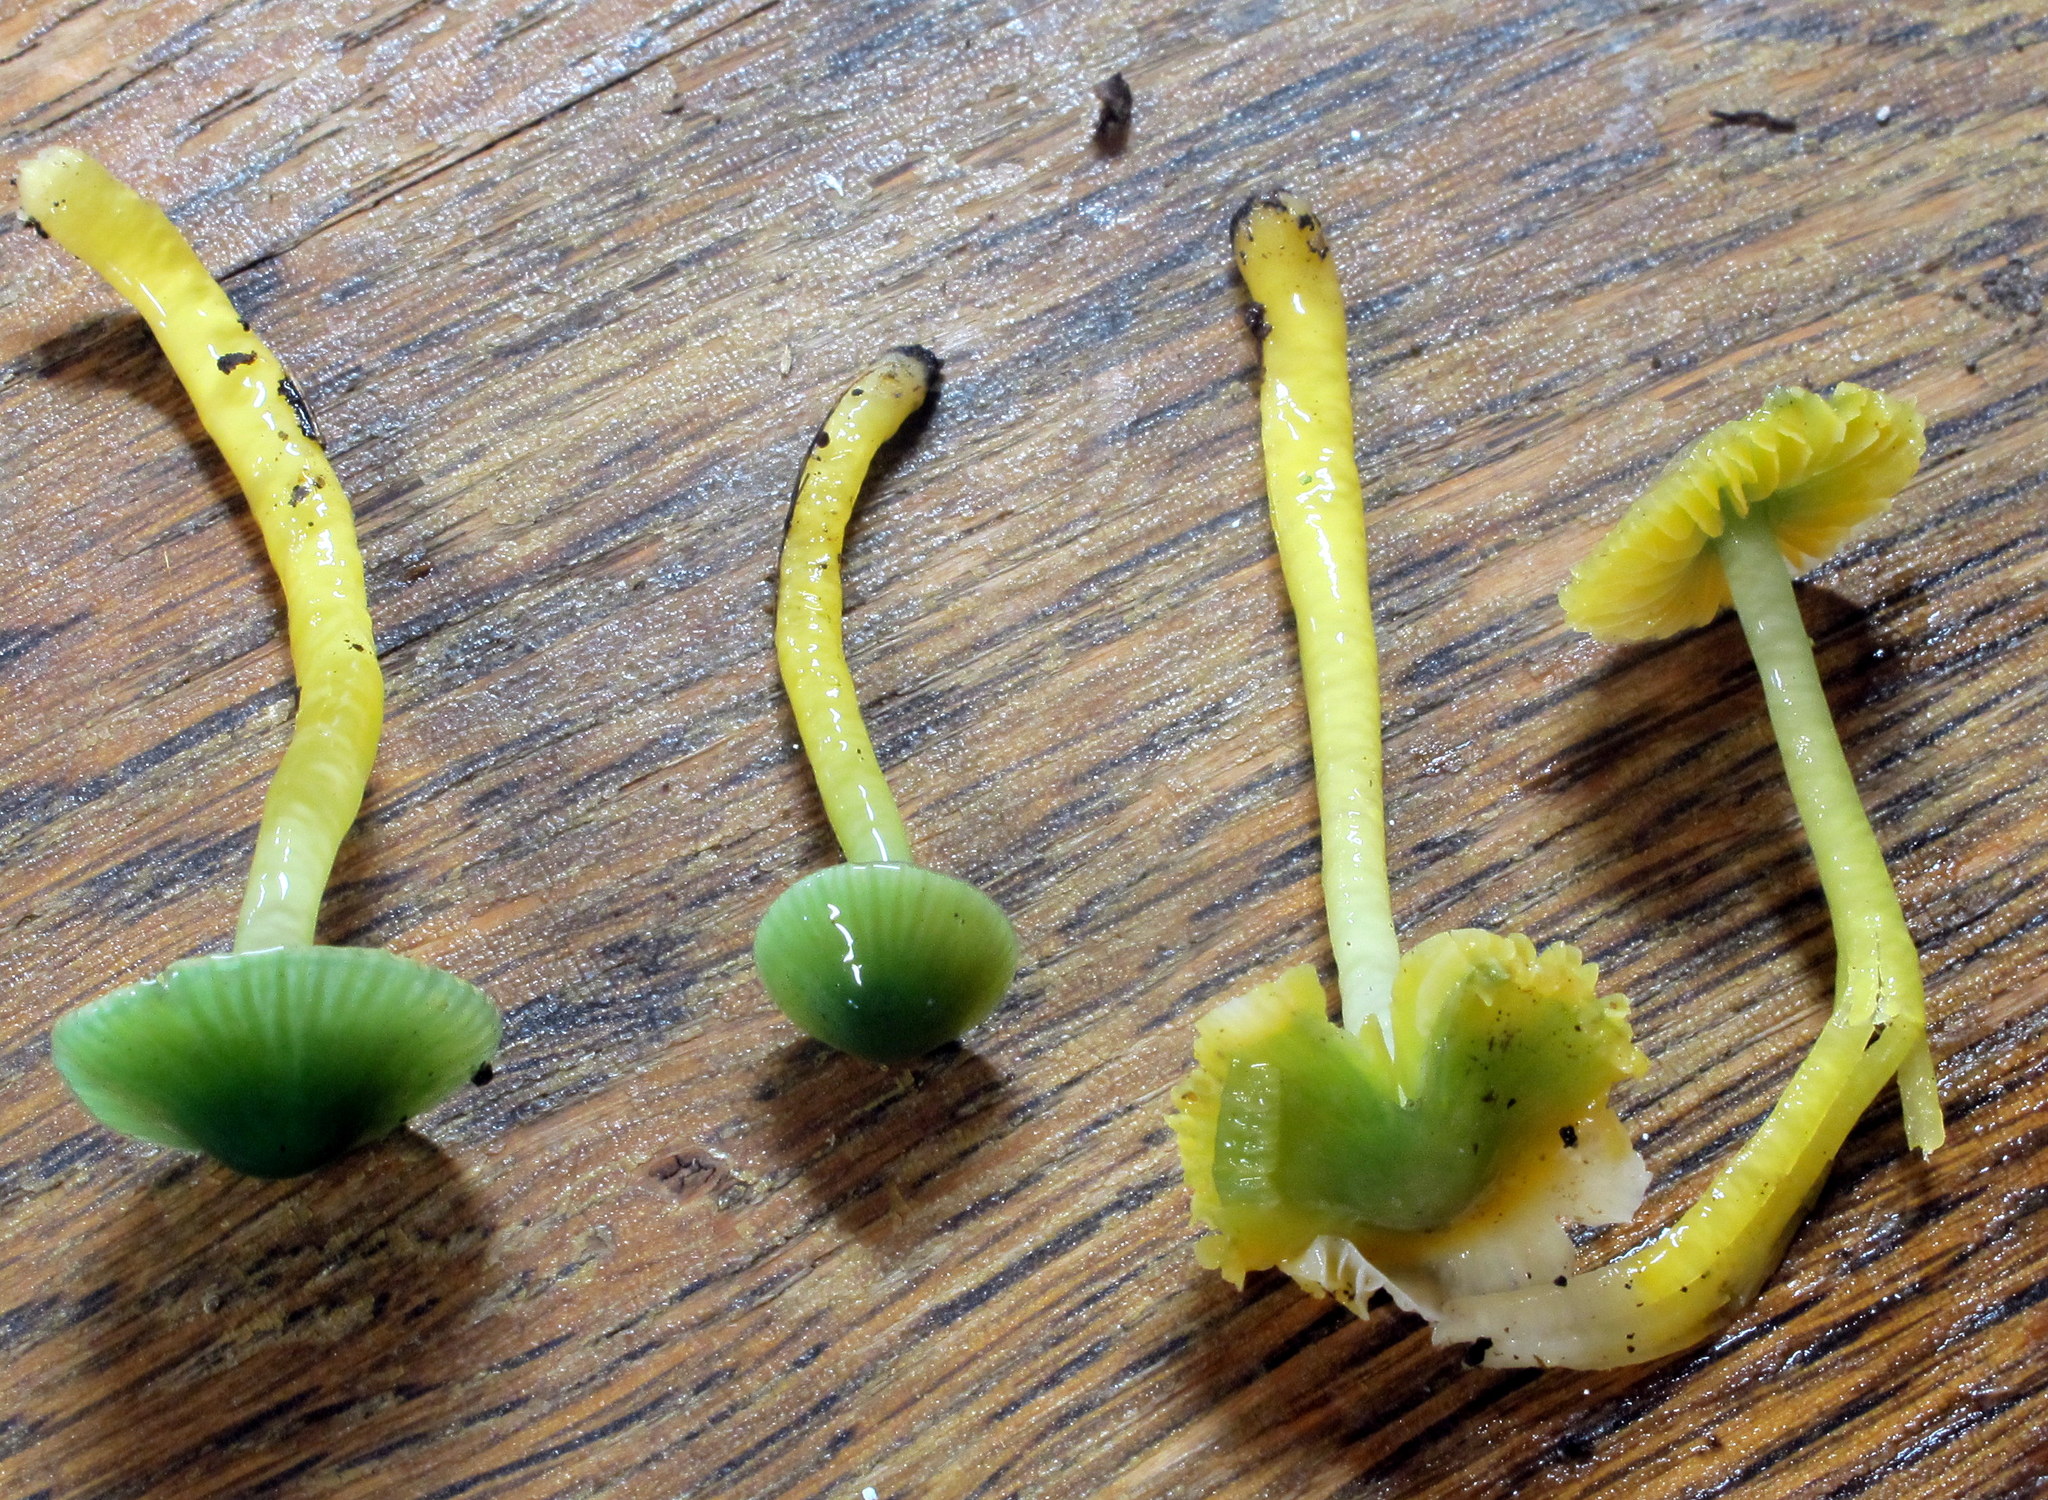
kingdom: Fungi
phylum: Basidiomycota
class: Agaricomycetes
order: Agaricales
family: Hygrophoraceae
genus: Gliophorus
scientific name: Gliophorus psittacinus
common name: Parrot wax-cap
